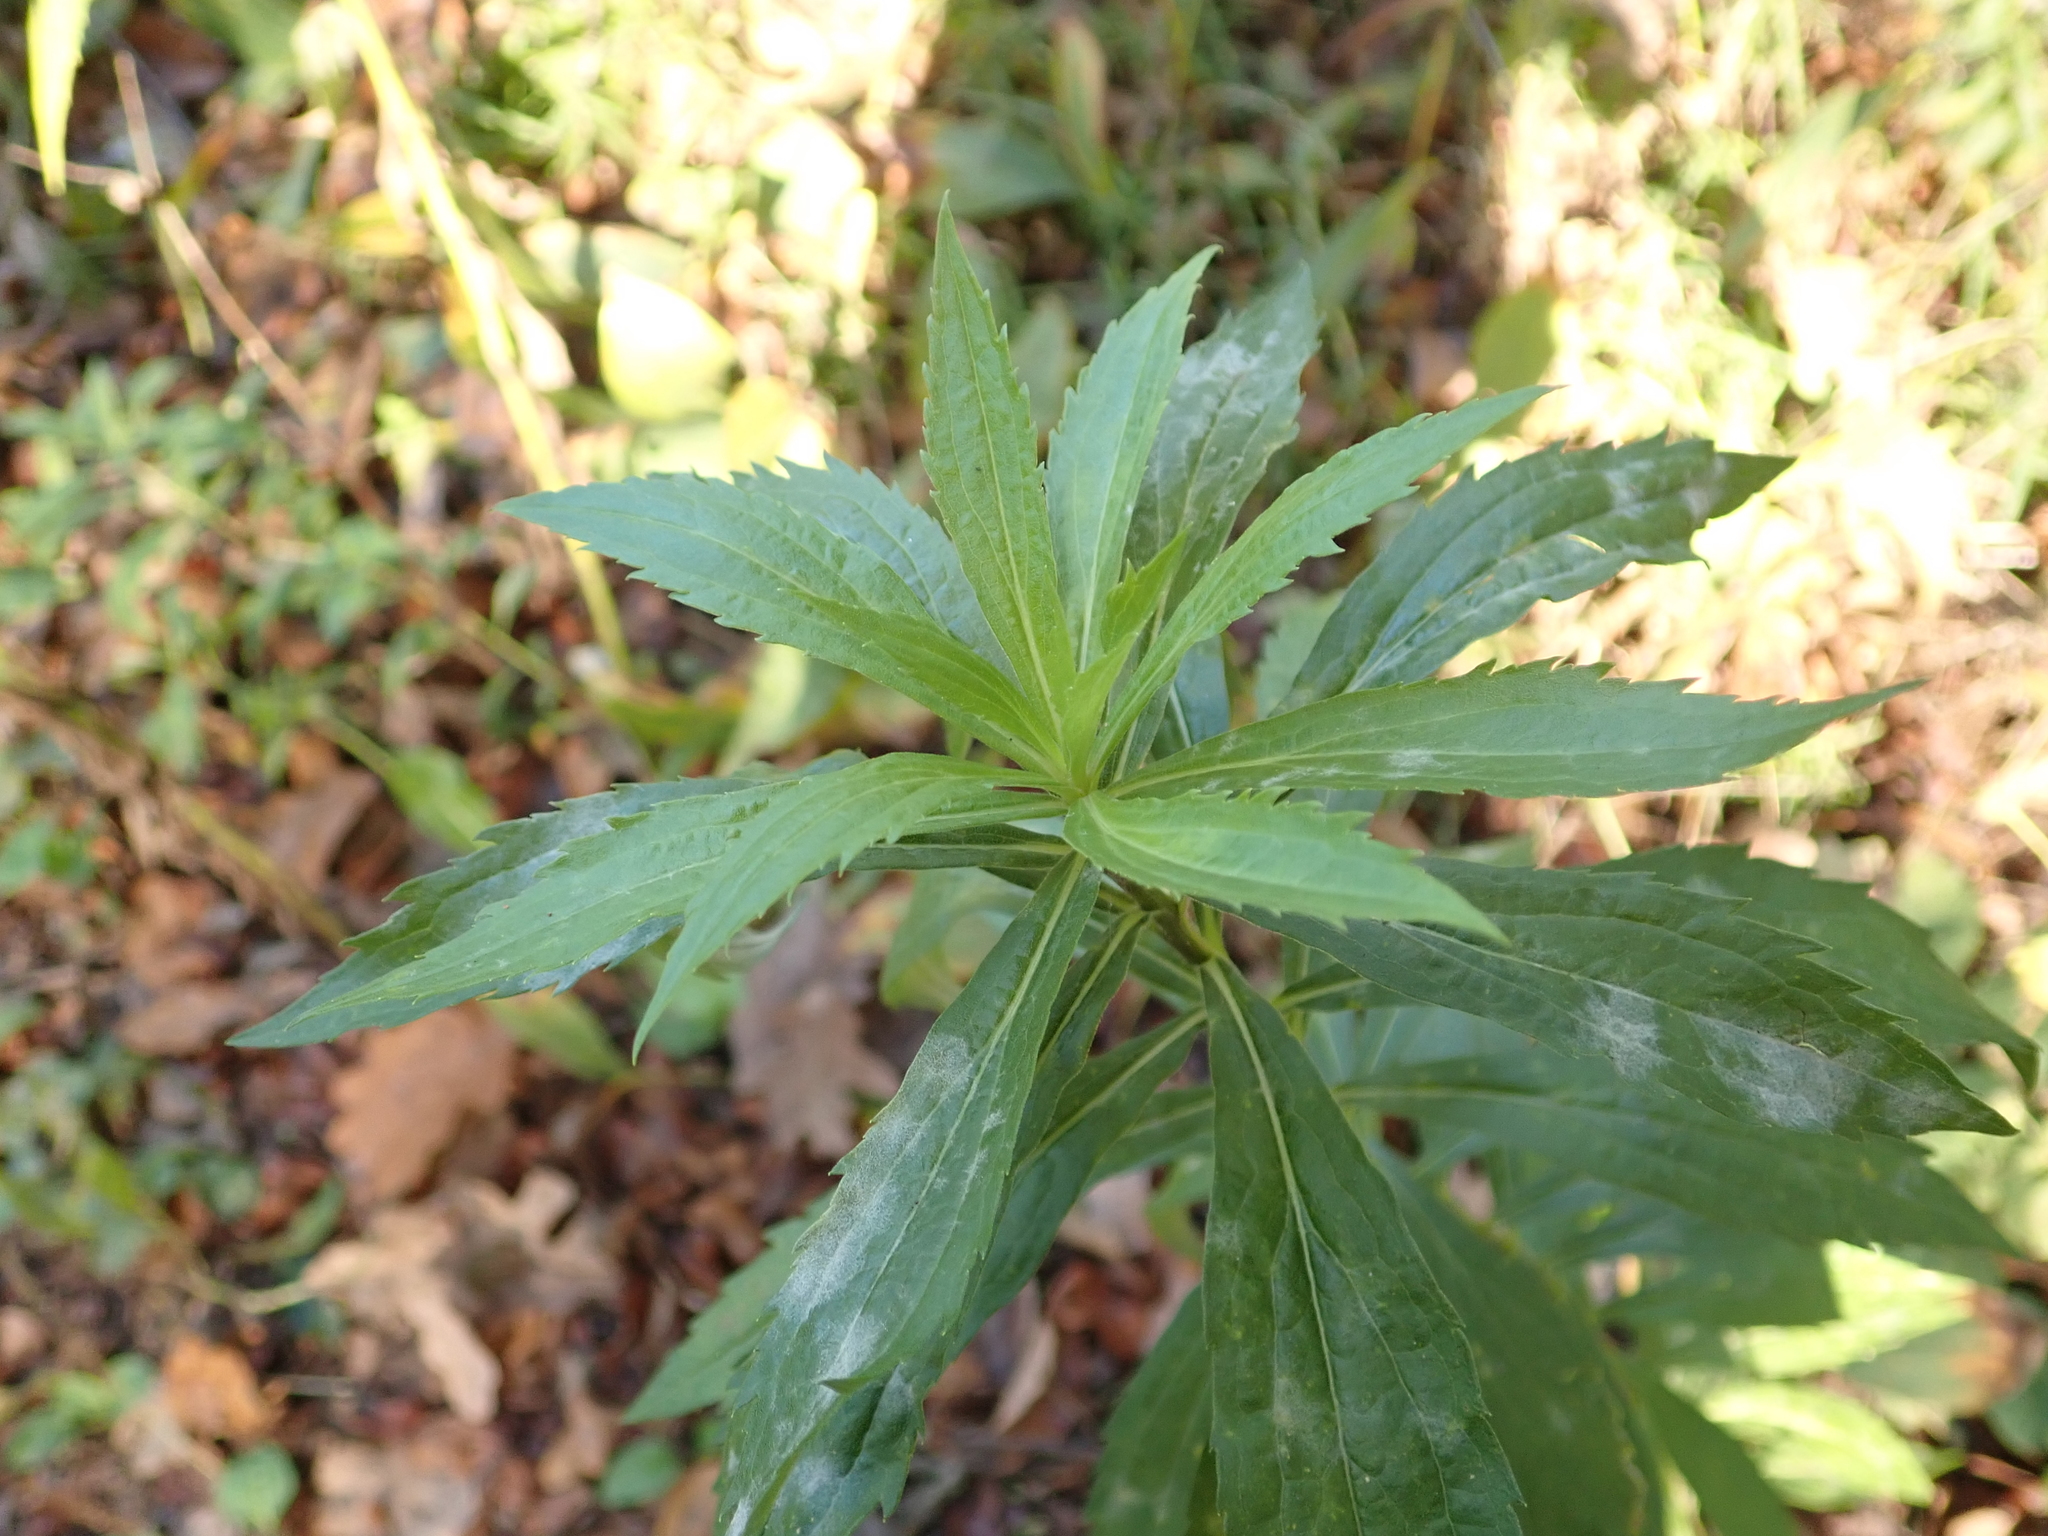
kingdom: Plantae
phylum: Tracheophyta
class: Magnoliopsida
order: Asterales
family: Asteraceae
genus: Solidago
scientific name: Solidago canadensis
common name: Canada goldenrod
